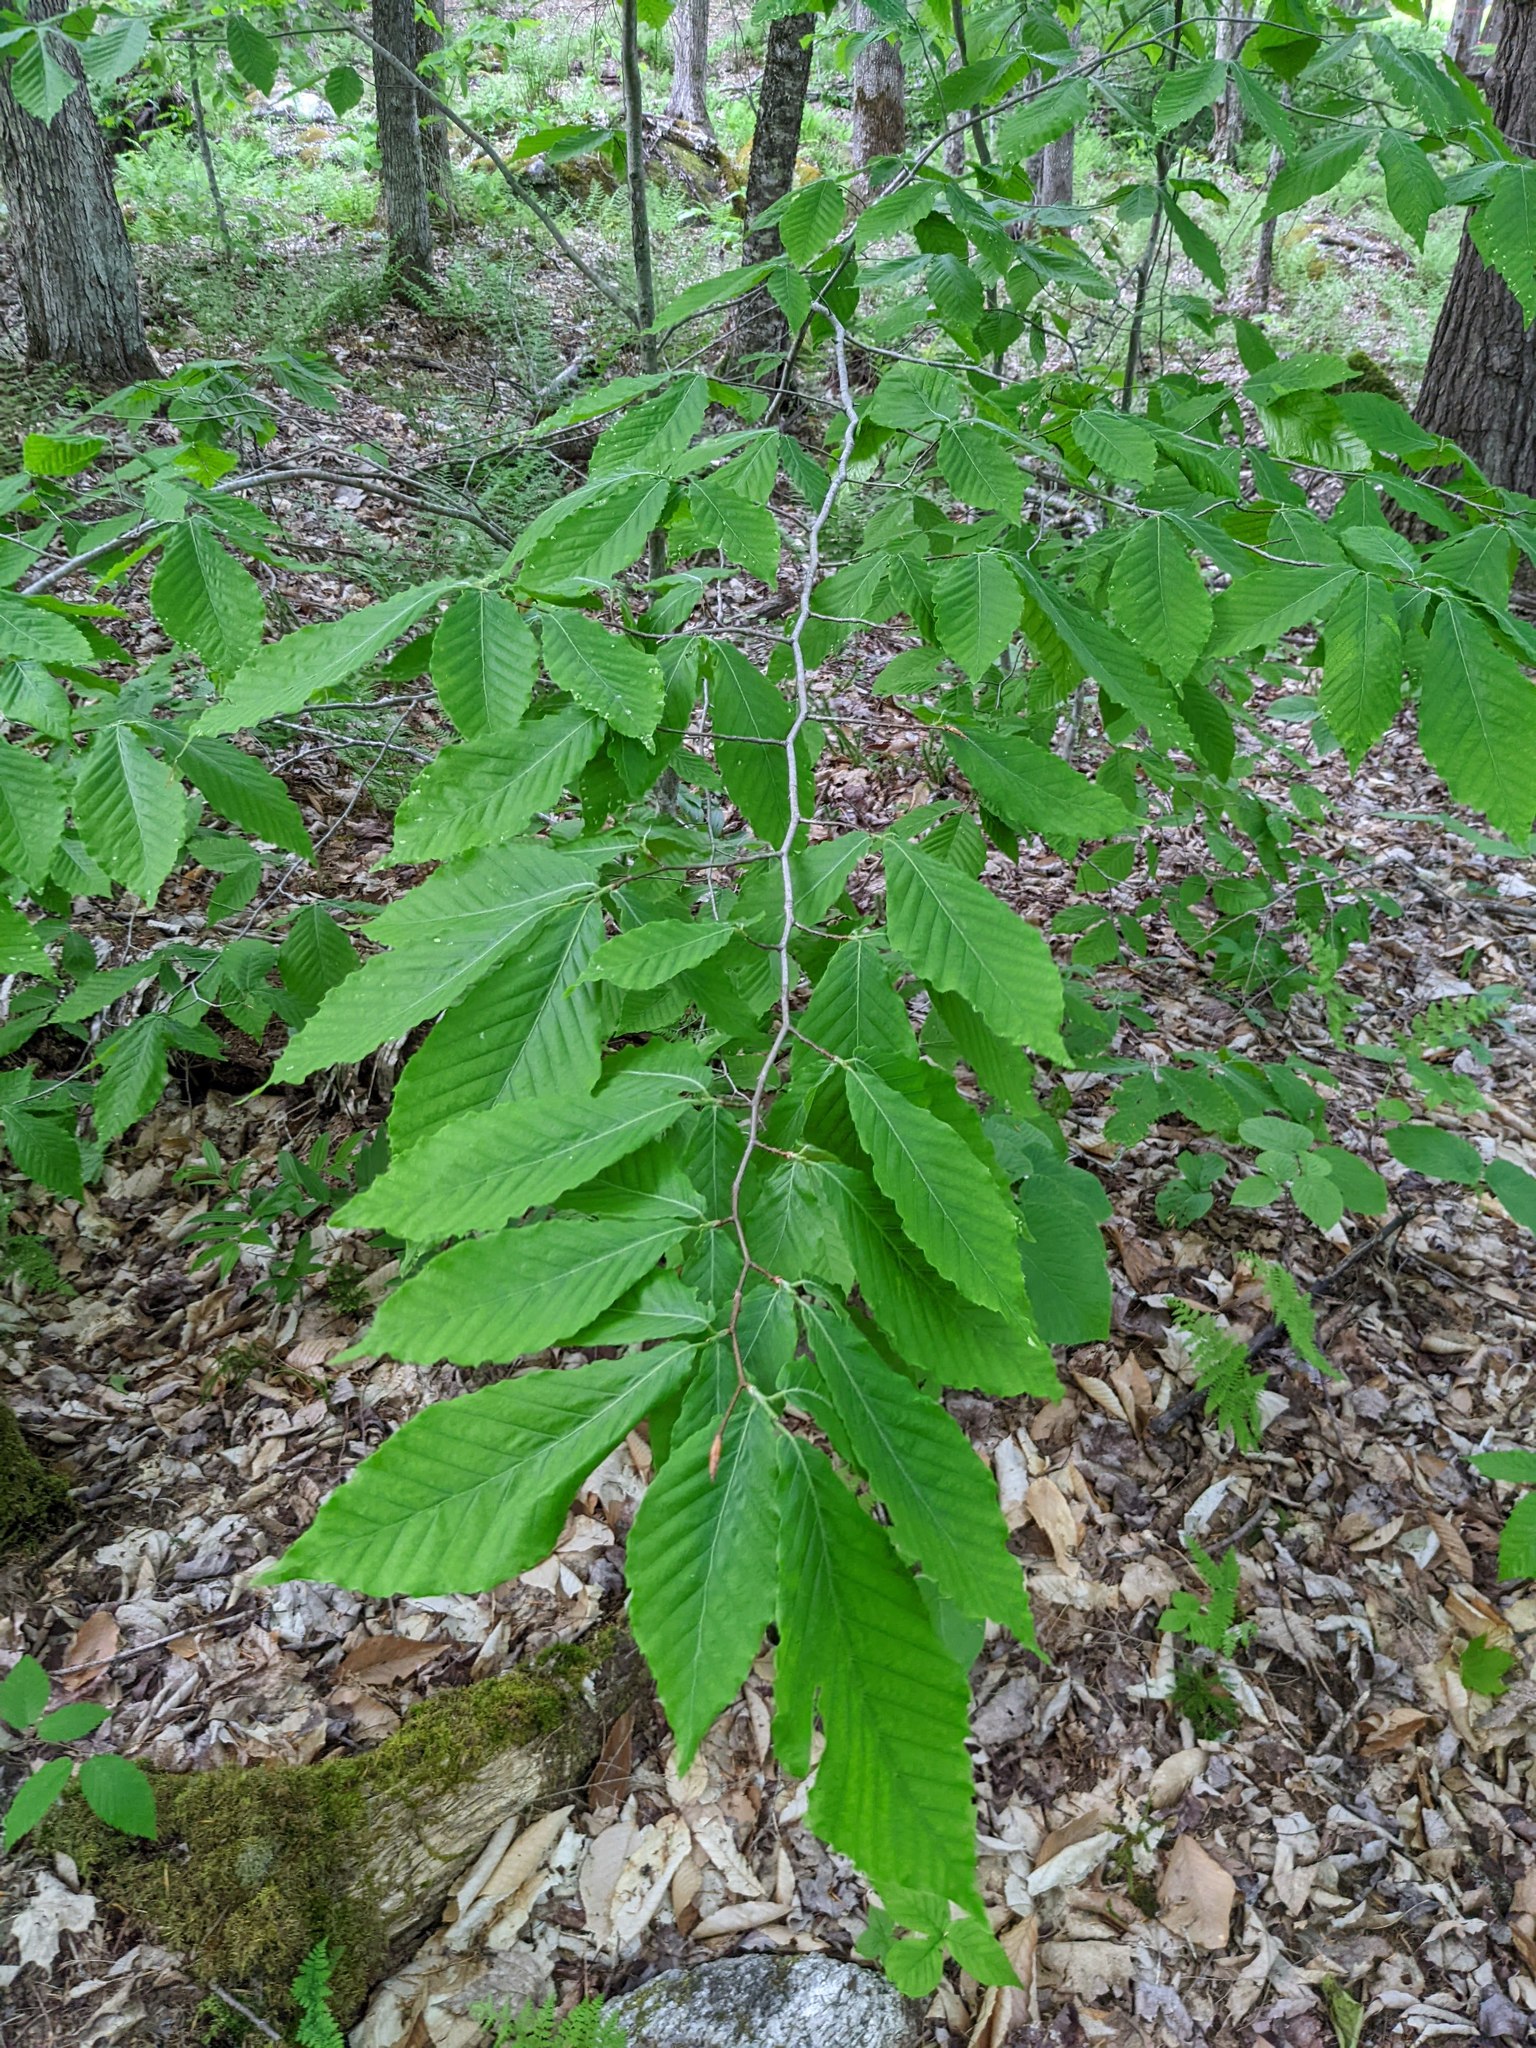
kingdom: Plantae
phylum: Tracheophyta
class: Magnoliopsida
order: Fagales
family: Fagaceae
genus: Fagus
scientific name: Fagus grandifolia
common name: American beech
